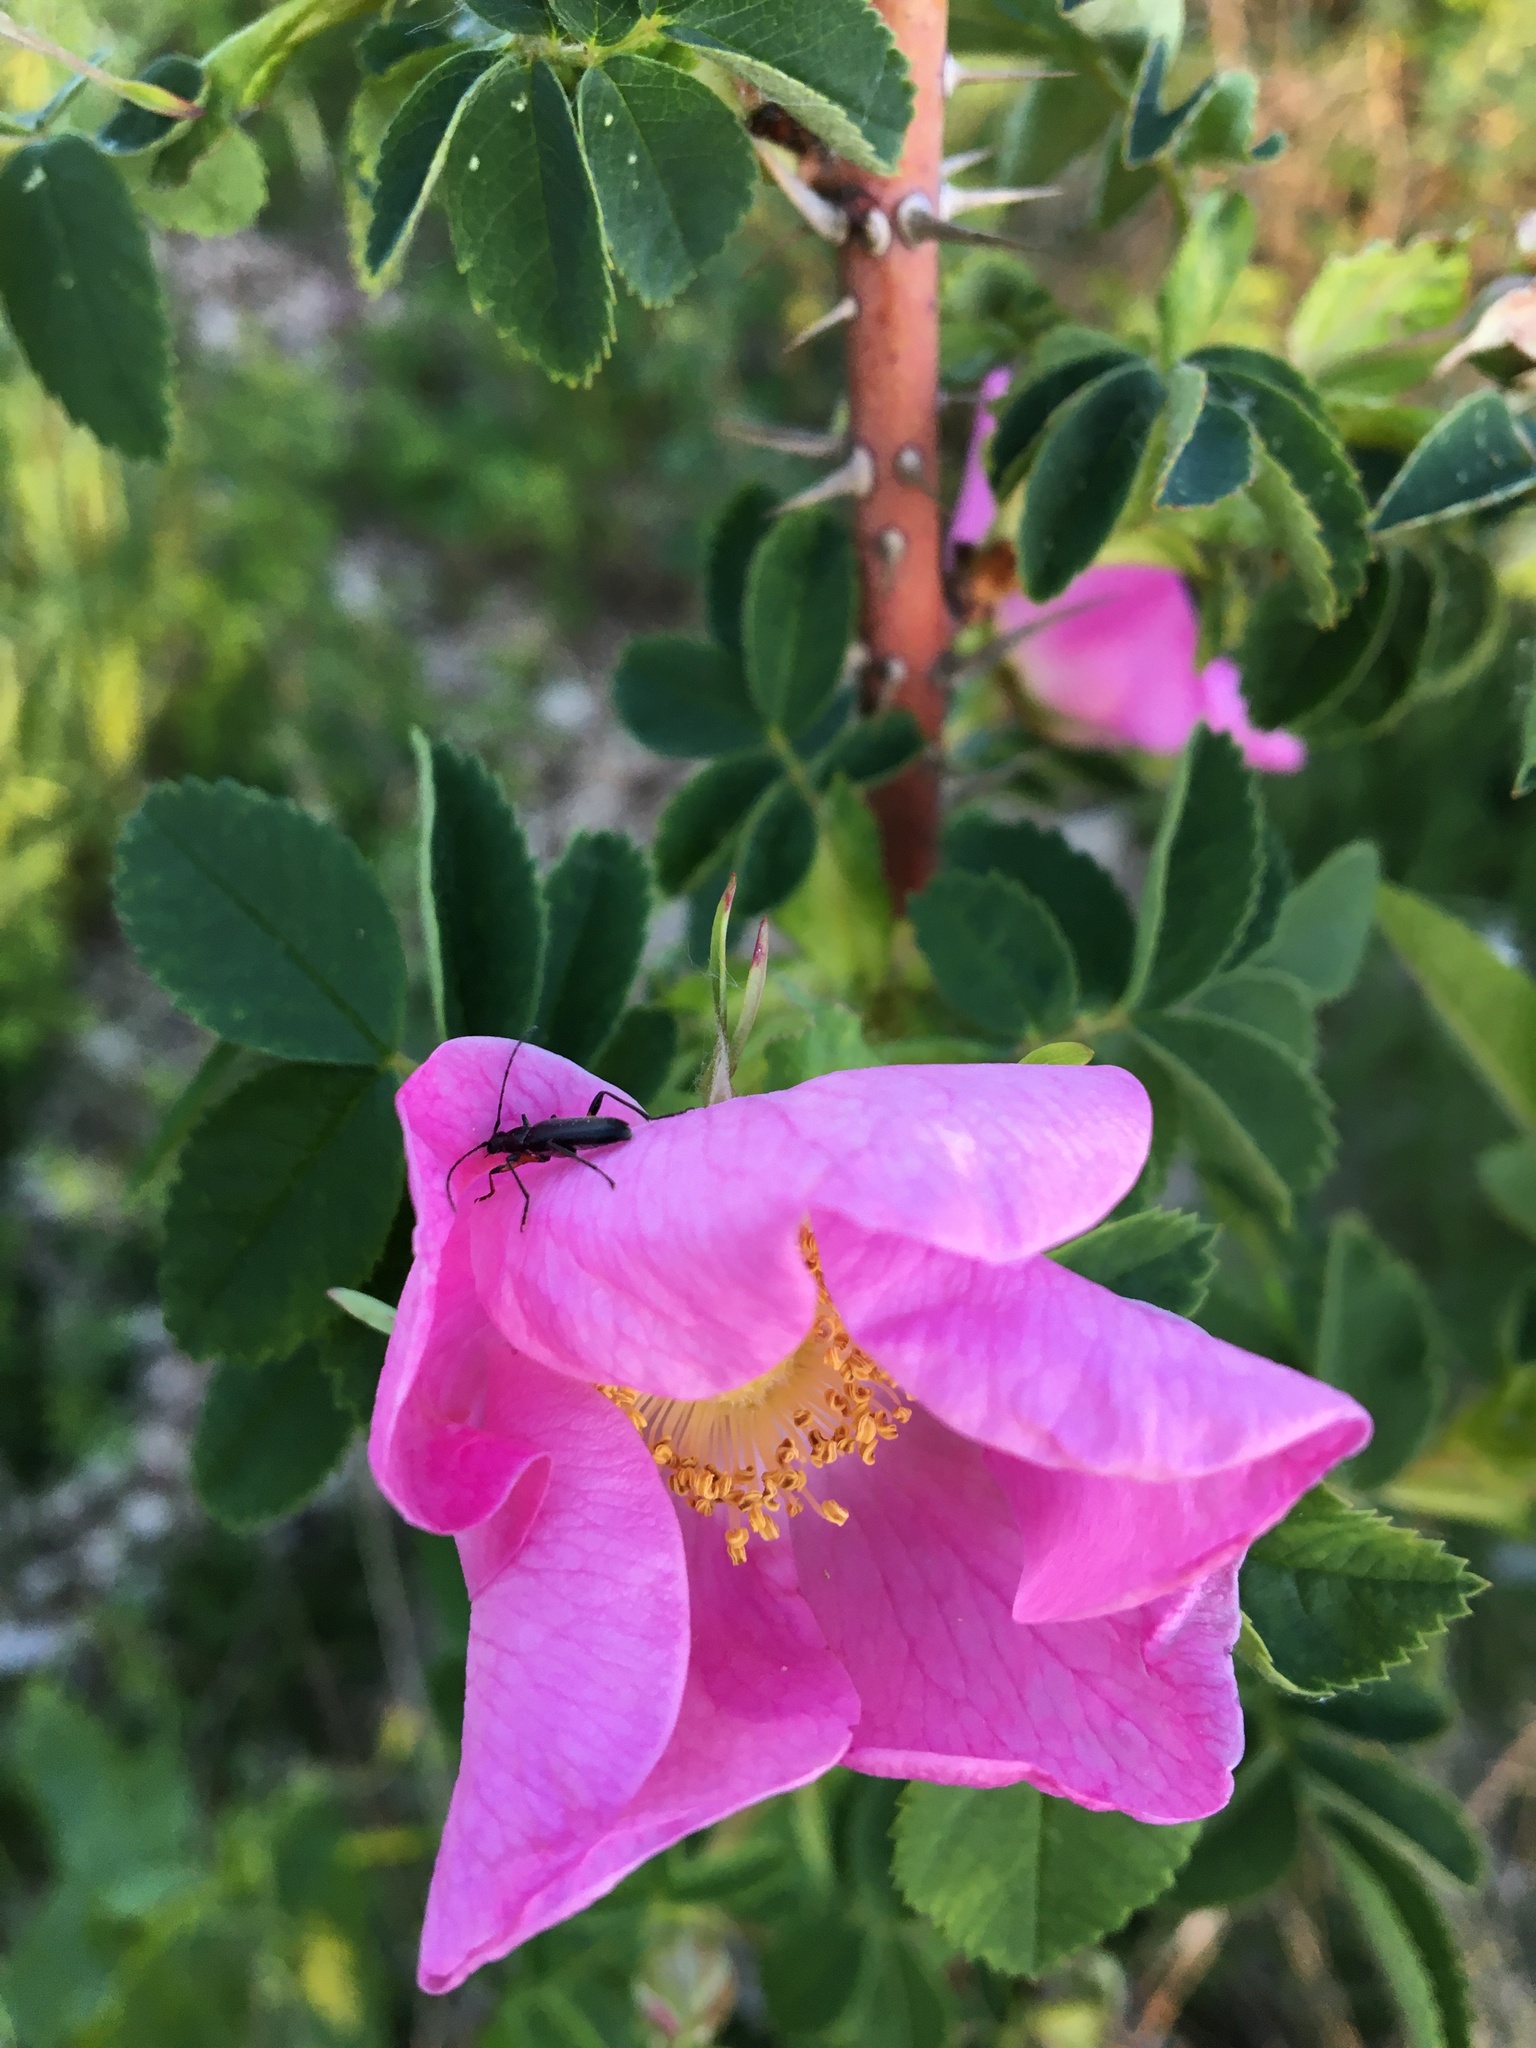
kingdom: Animalia
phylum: Arthropoda
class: Insecta
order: Coleoptera
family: Cerambycidae
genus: Grammoptera
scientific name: Grammoptera subargentata
